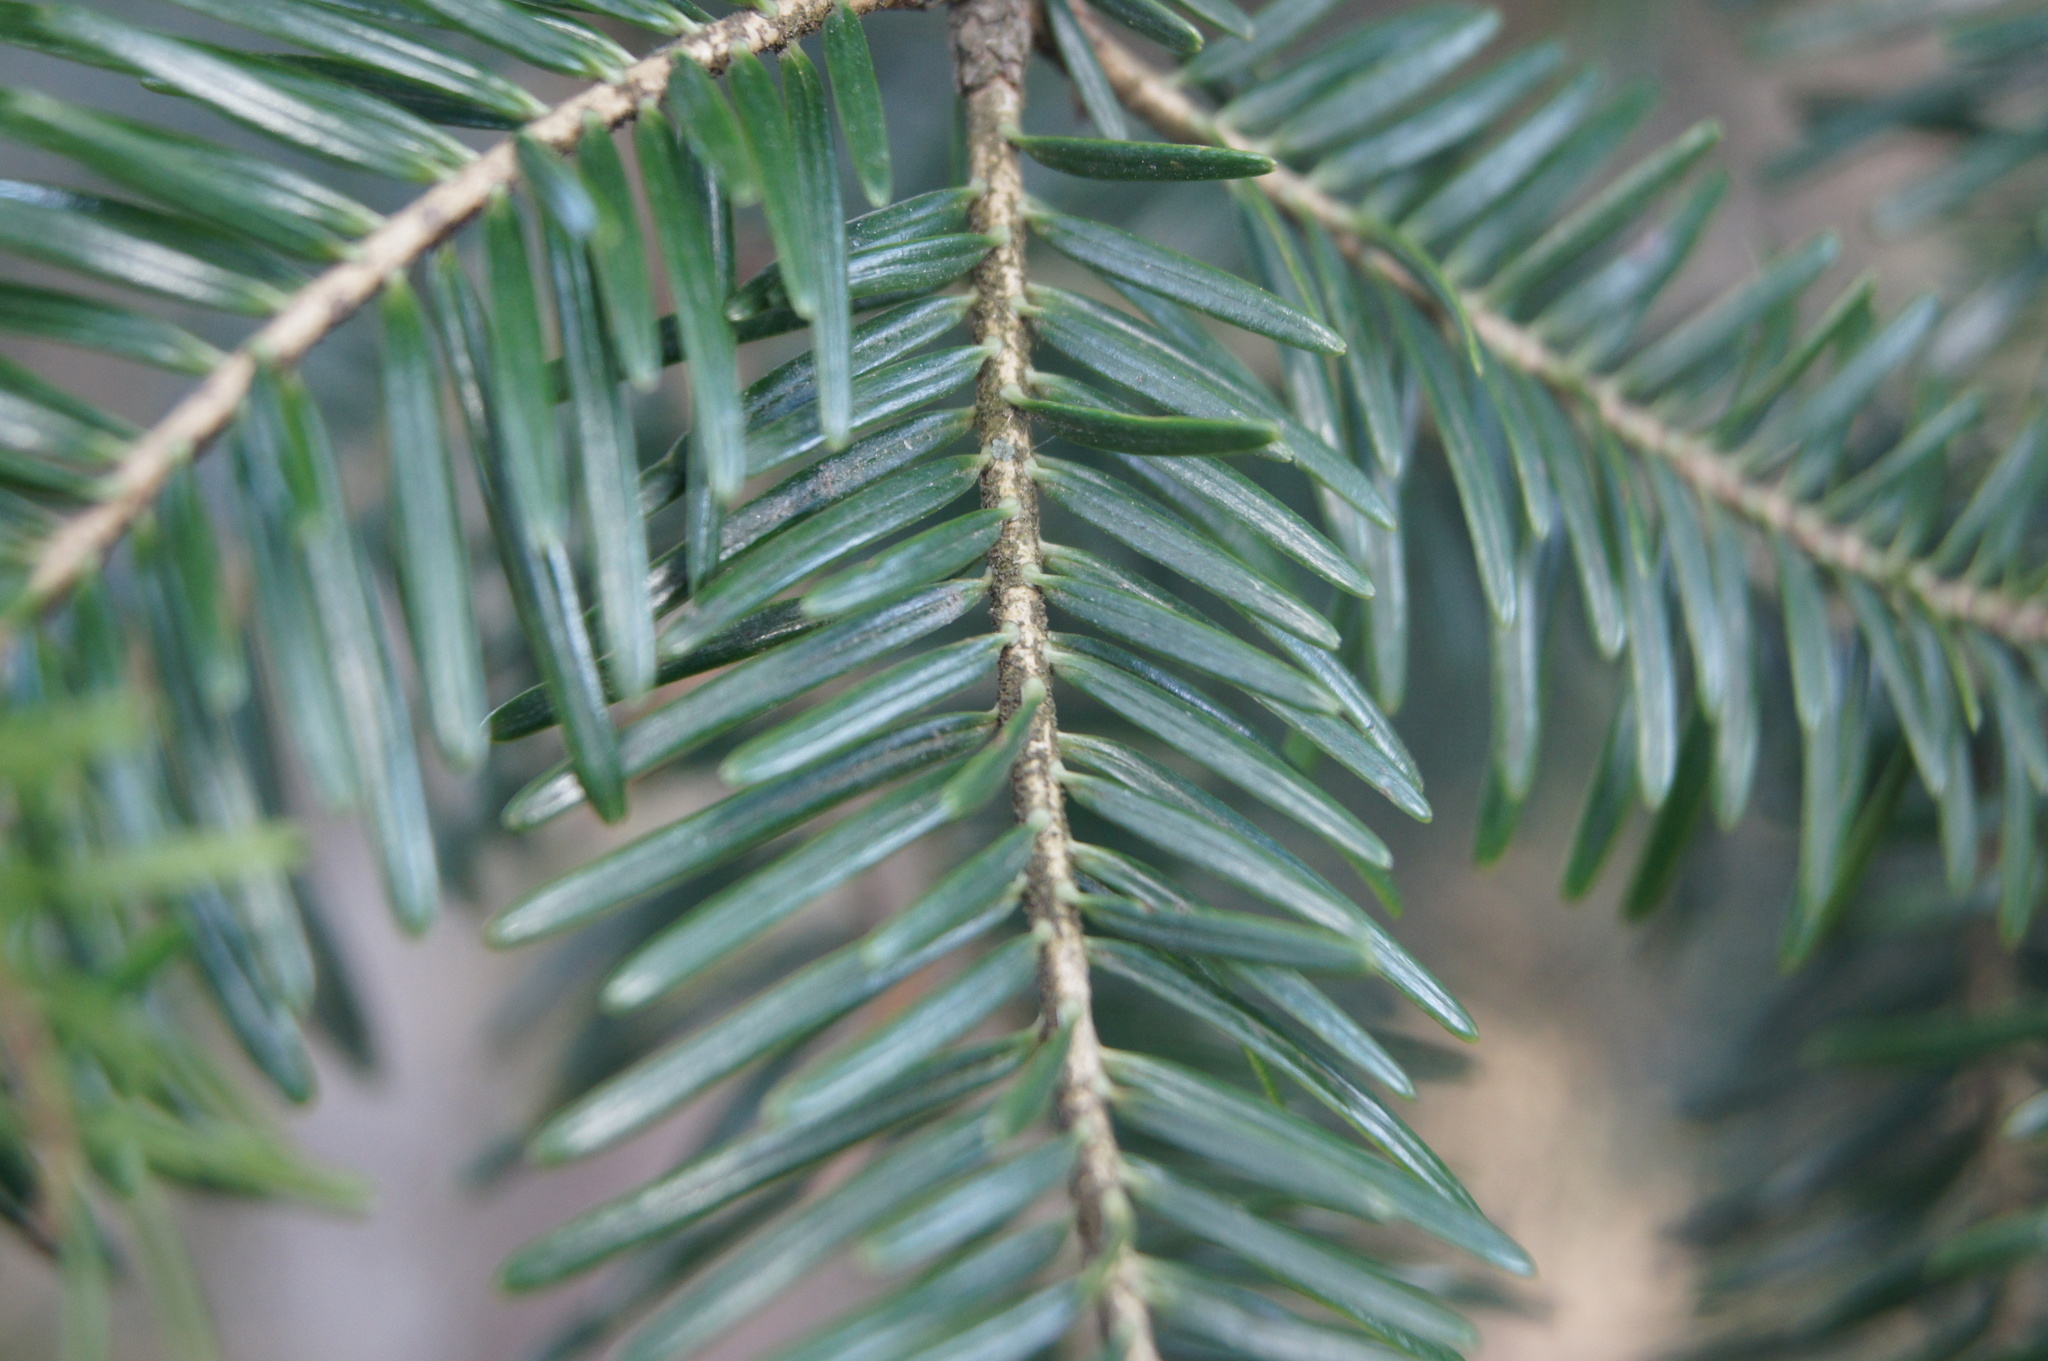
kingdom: Plantae
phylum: Tracheophyta
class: Pinopsida
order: Pinales
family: Pinaceae
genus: Abies
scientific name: Abies alba
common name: Silver fir
